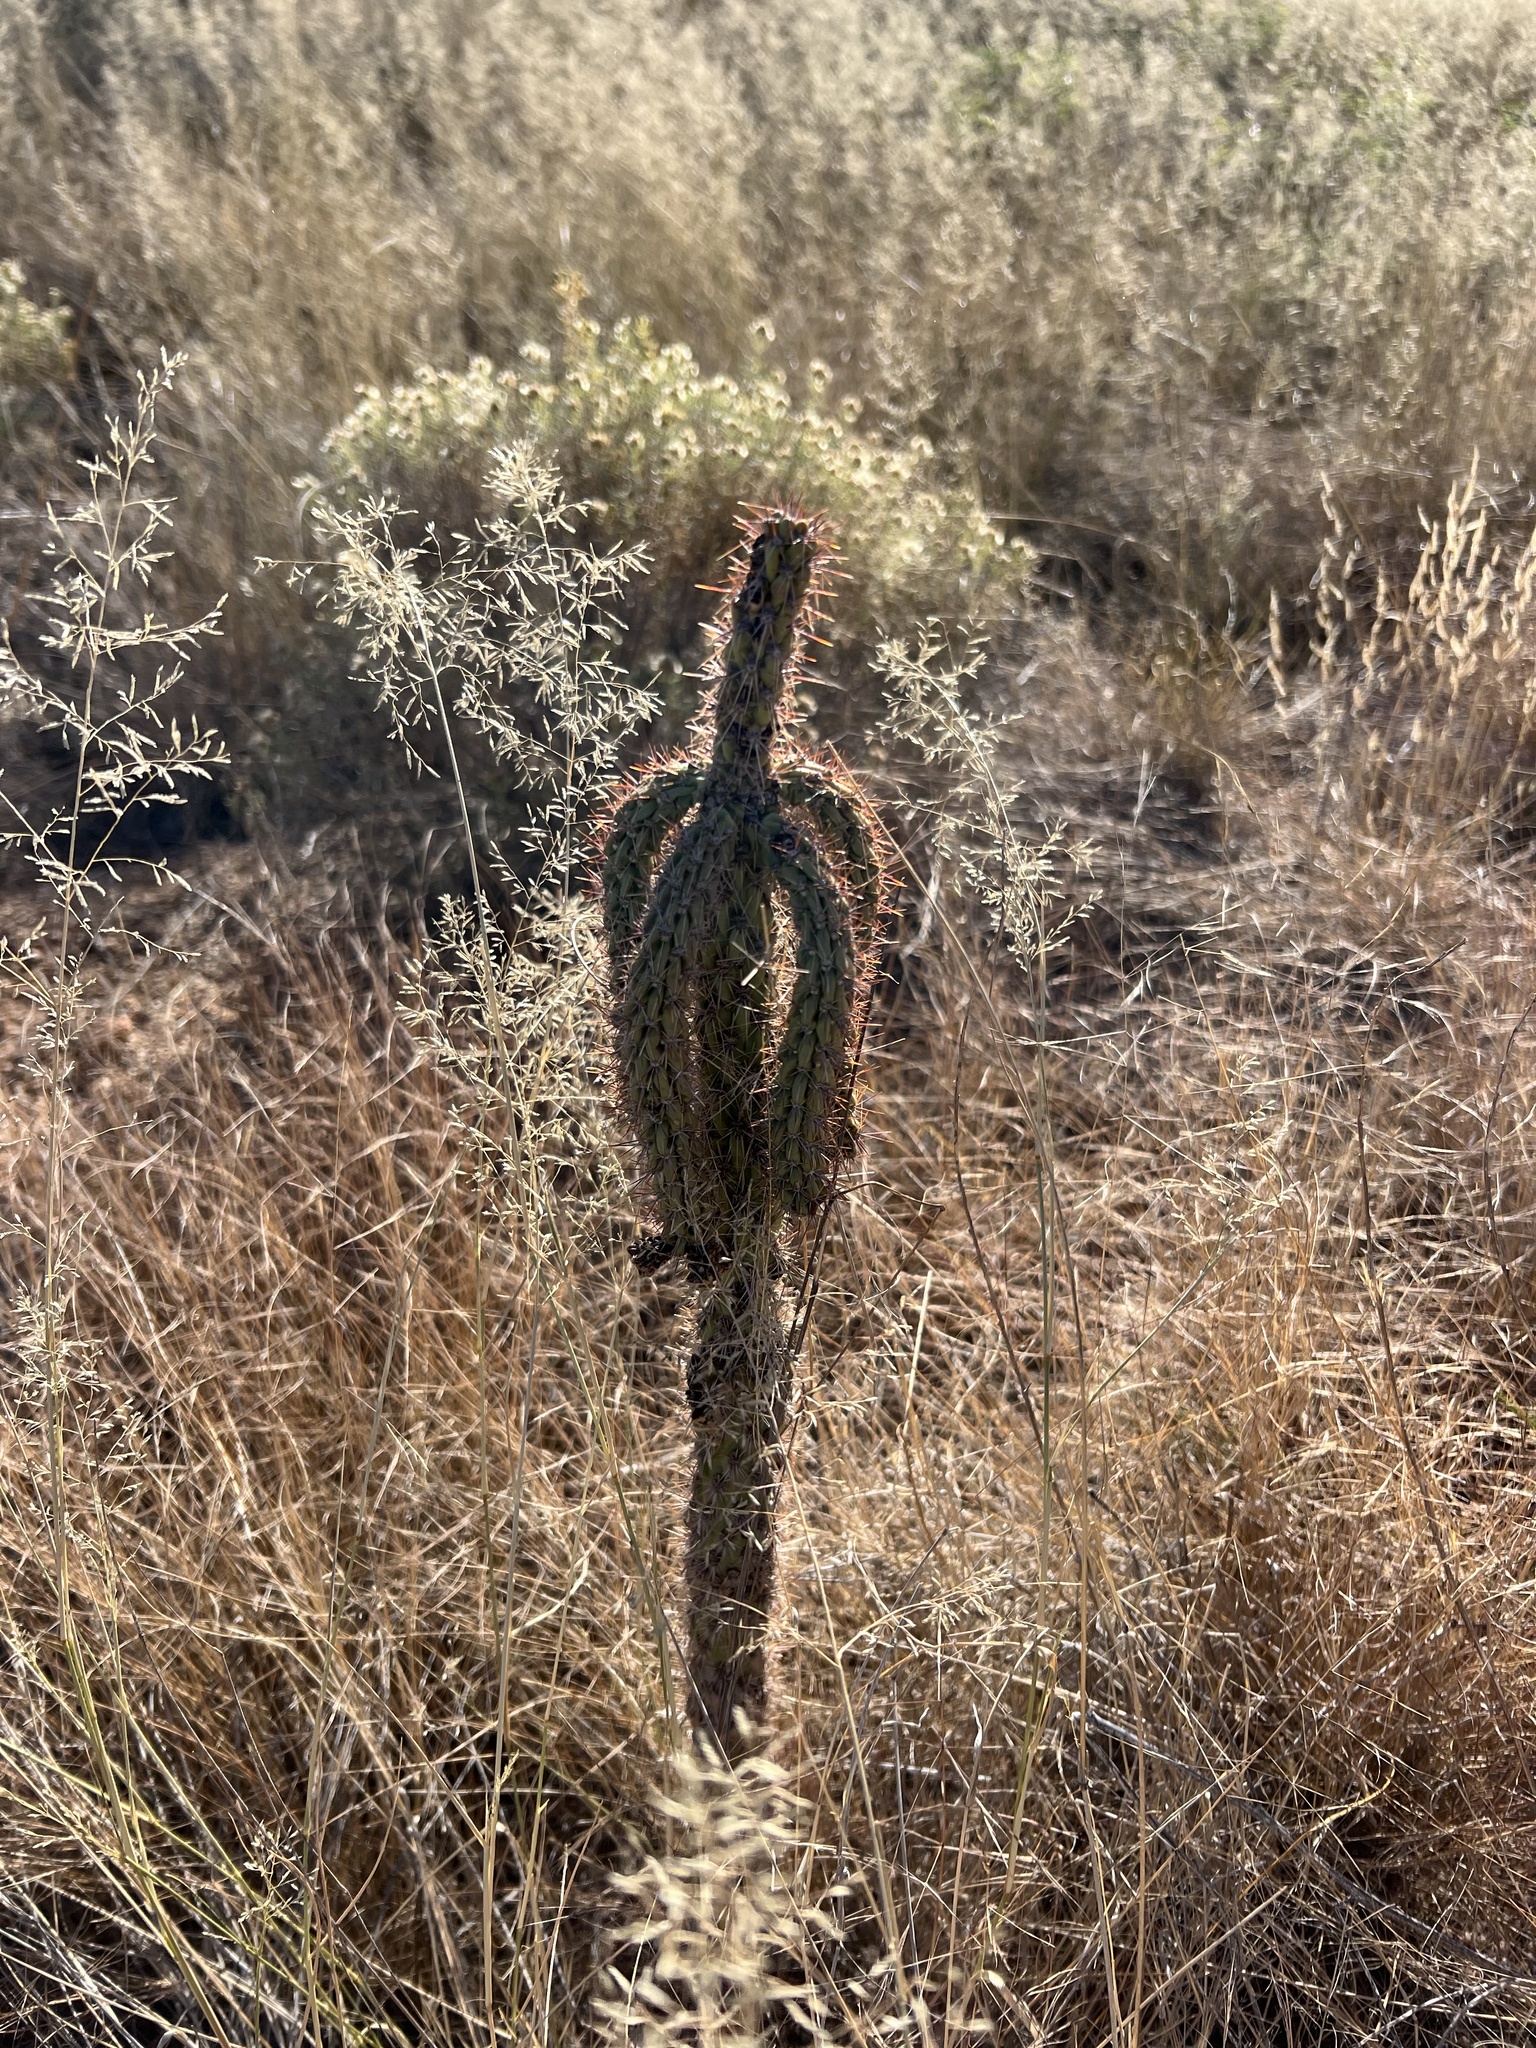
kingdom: Plantae
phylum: Tracheophyta
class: Magnoliopsida
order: Caryophyllales
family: Cactaceae
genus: Cylindropuntia
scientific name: Cylindropuntia imbricata
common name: Candelabrum cactus
